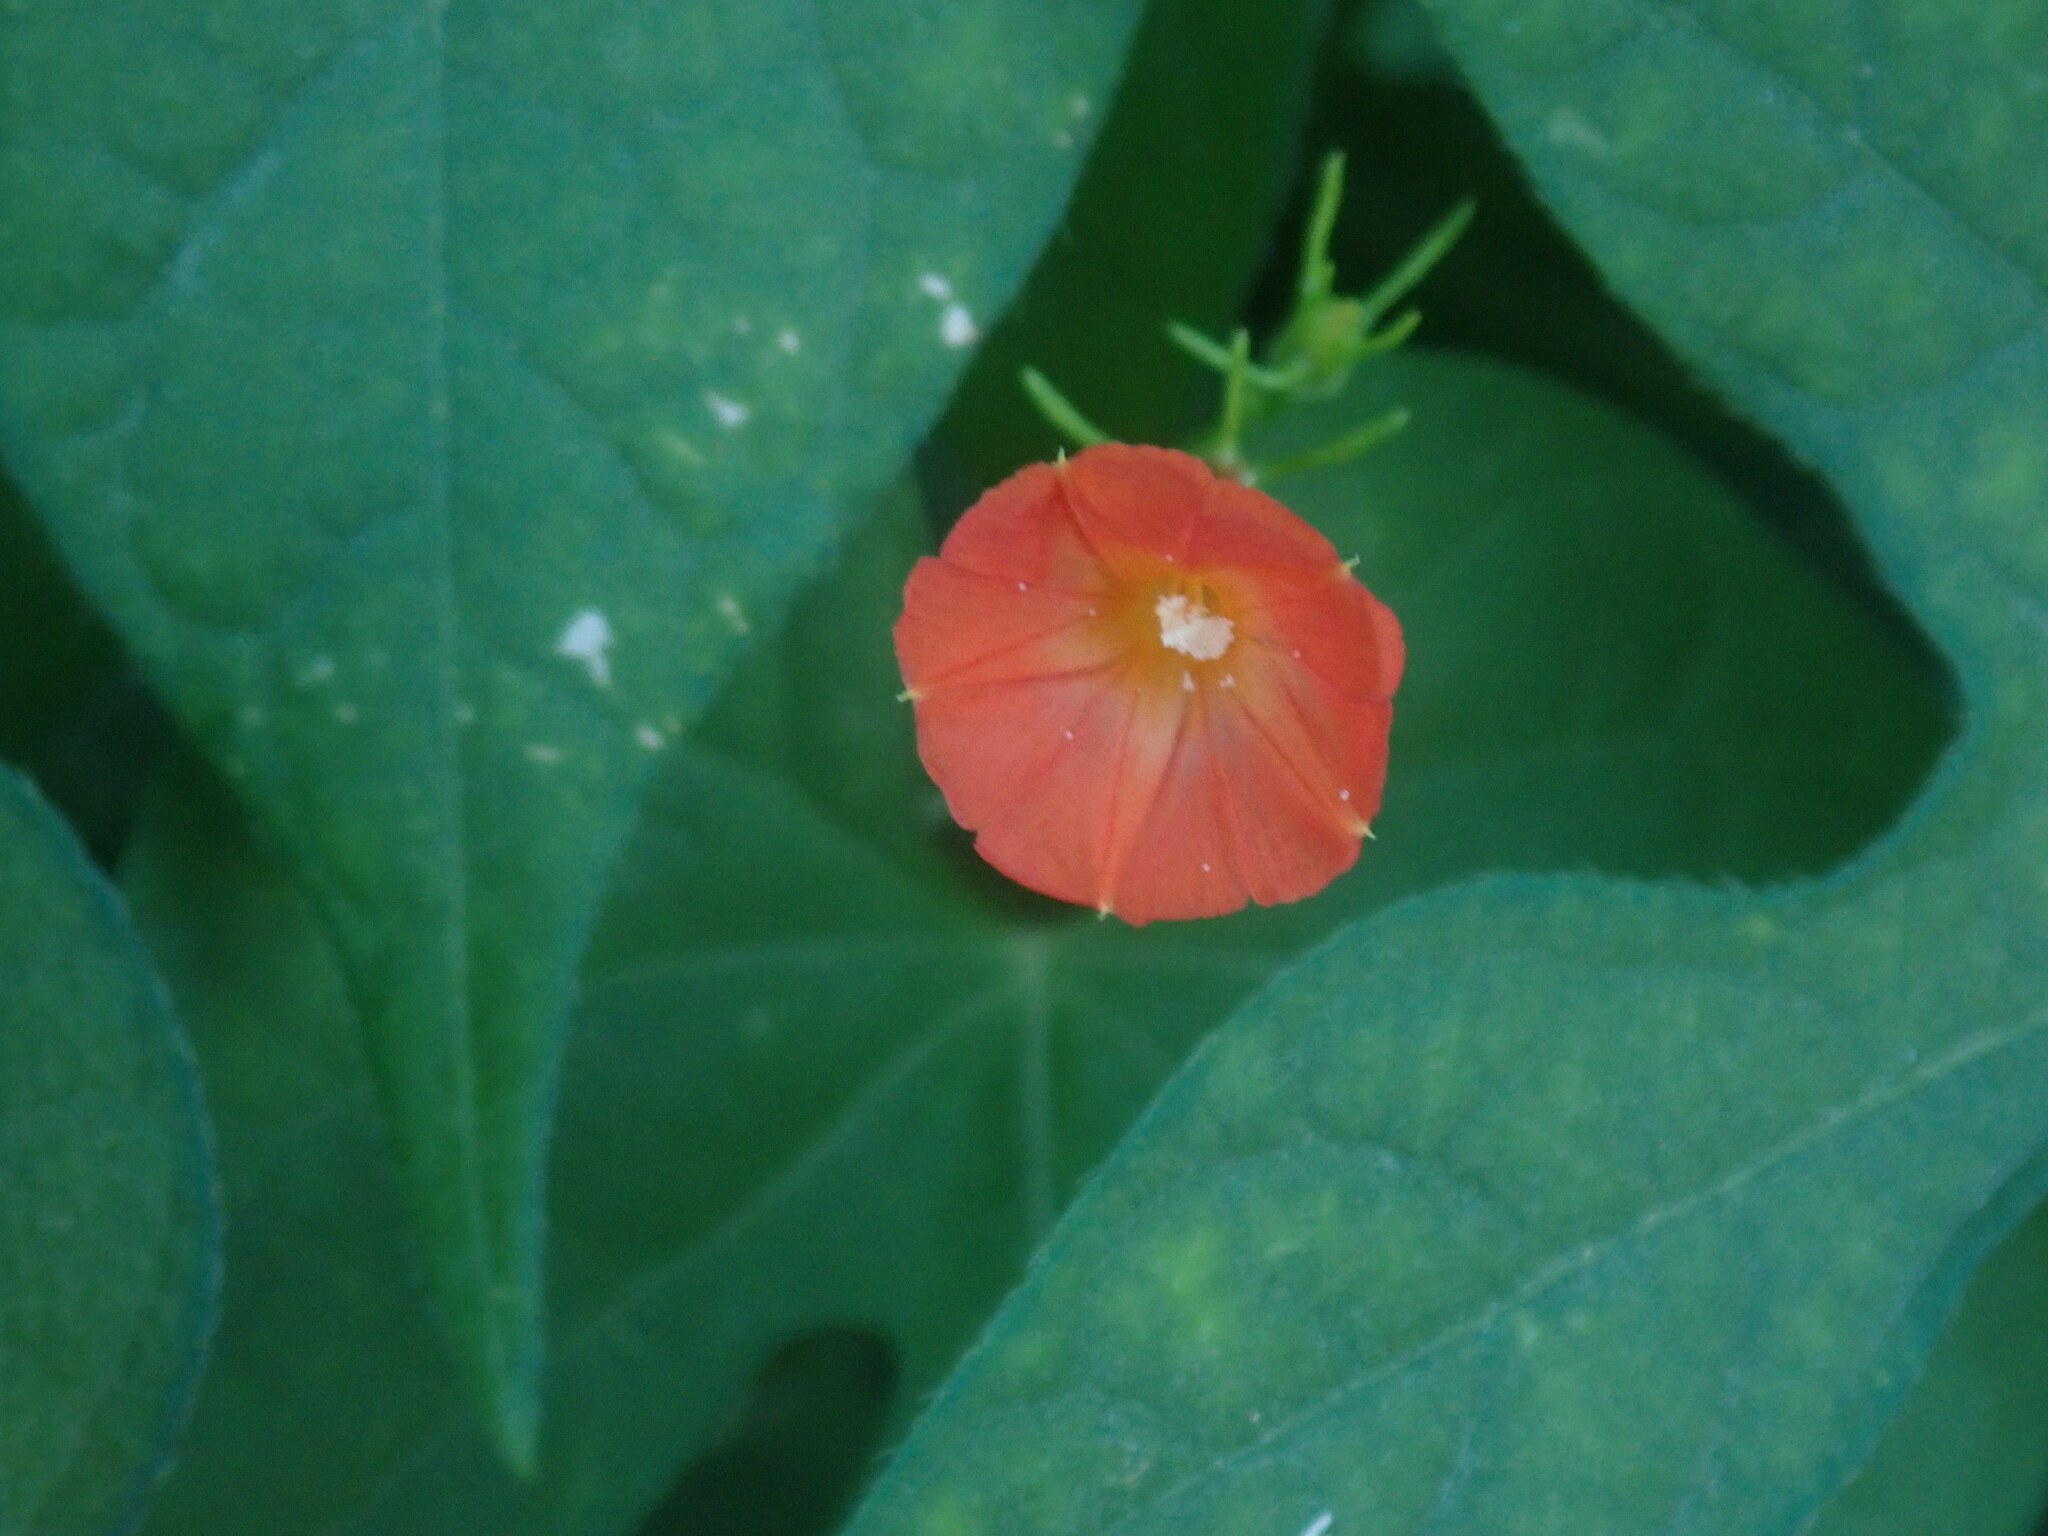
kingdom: Plantae
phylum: Tracheophyta
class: Magnoliopsida
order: Solanales
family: Convolvulaceae
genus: Ipomoea
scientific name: Ipomoea cristulata
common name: Trans-pecos morning-glory
